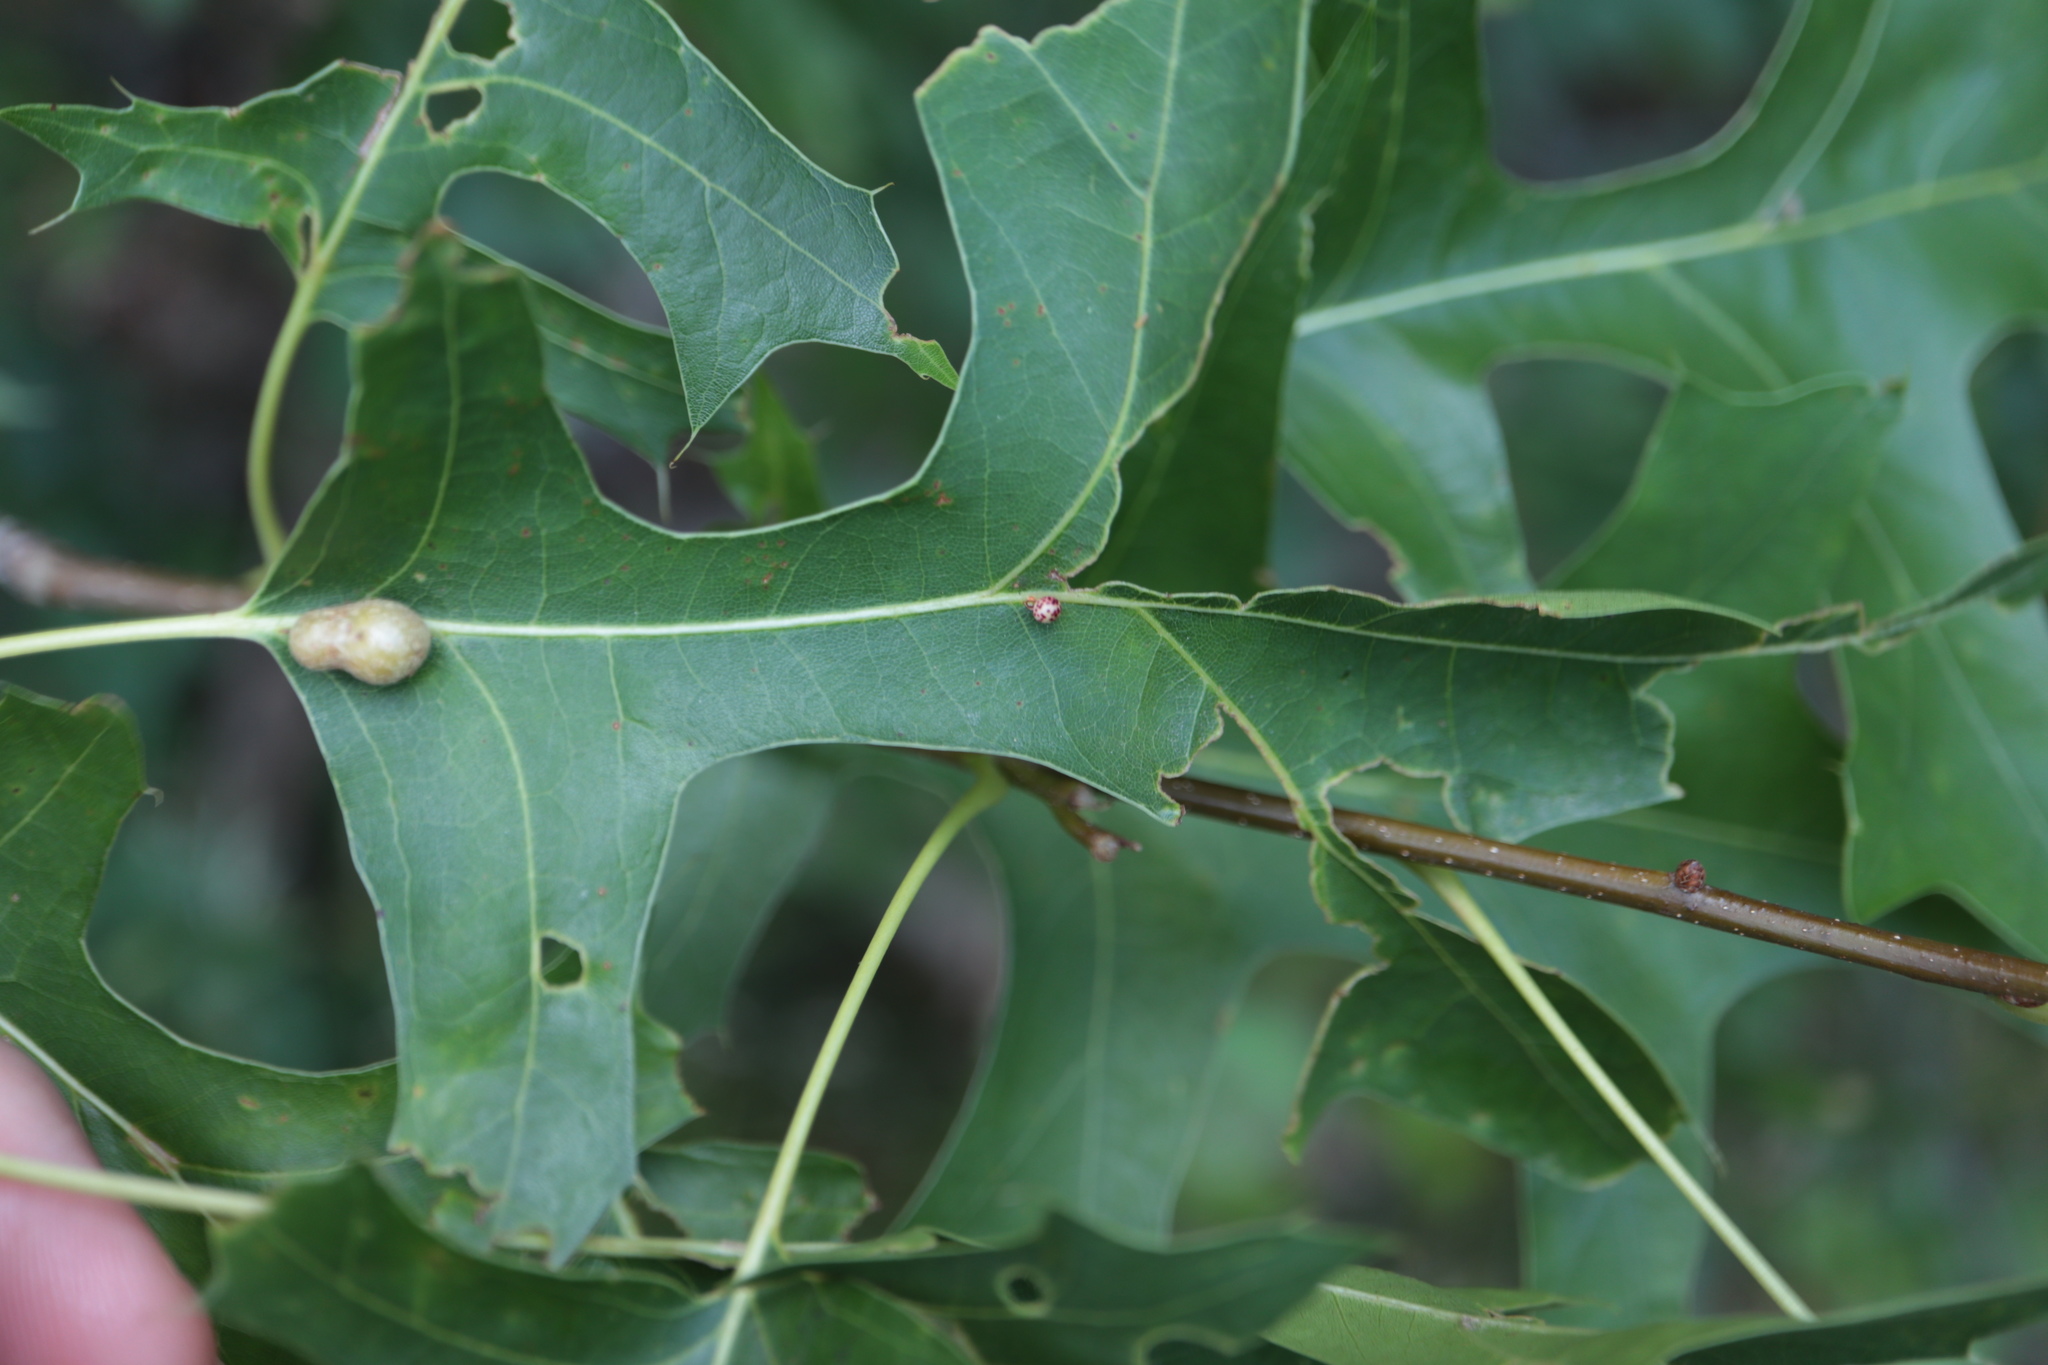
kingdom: Animalia
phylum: Arthropoda
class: Insecta
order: Hymenoptera
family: Cynipidae
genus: Zopheroteras
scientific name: Zopheroteras
